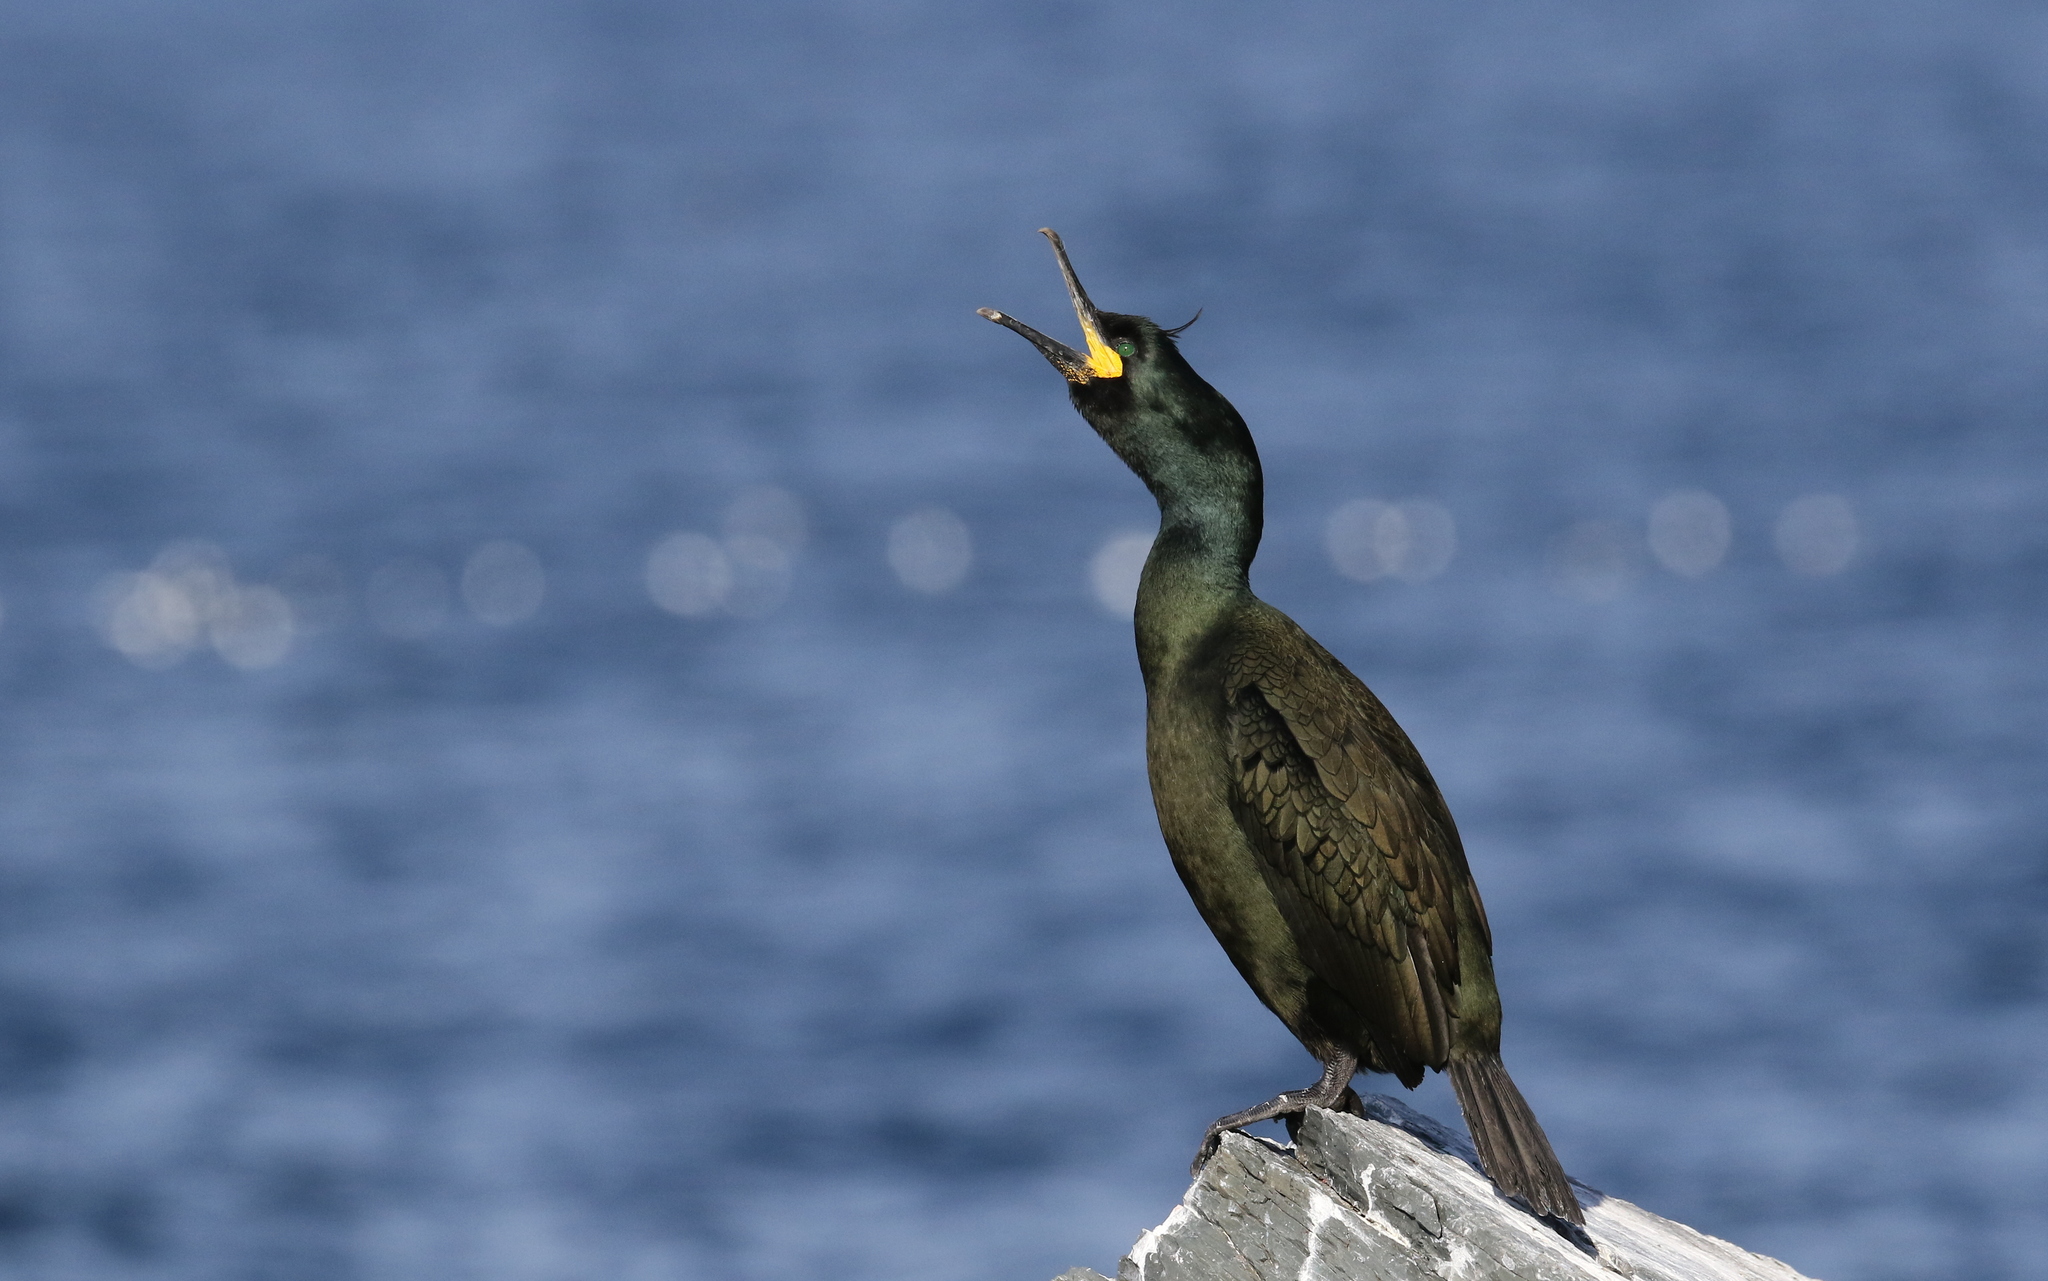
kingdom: Animalia
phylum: Chordata
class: Aves
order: Suliformes
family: Phalacrocoracidae
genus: Phalacrocorax
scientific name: Phalacrocorax aristotelis
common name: European shag
